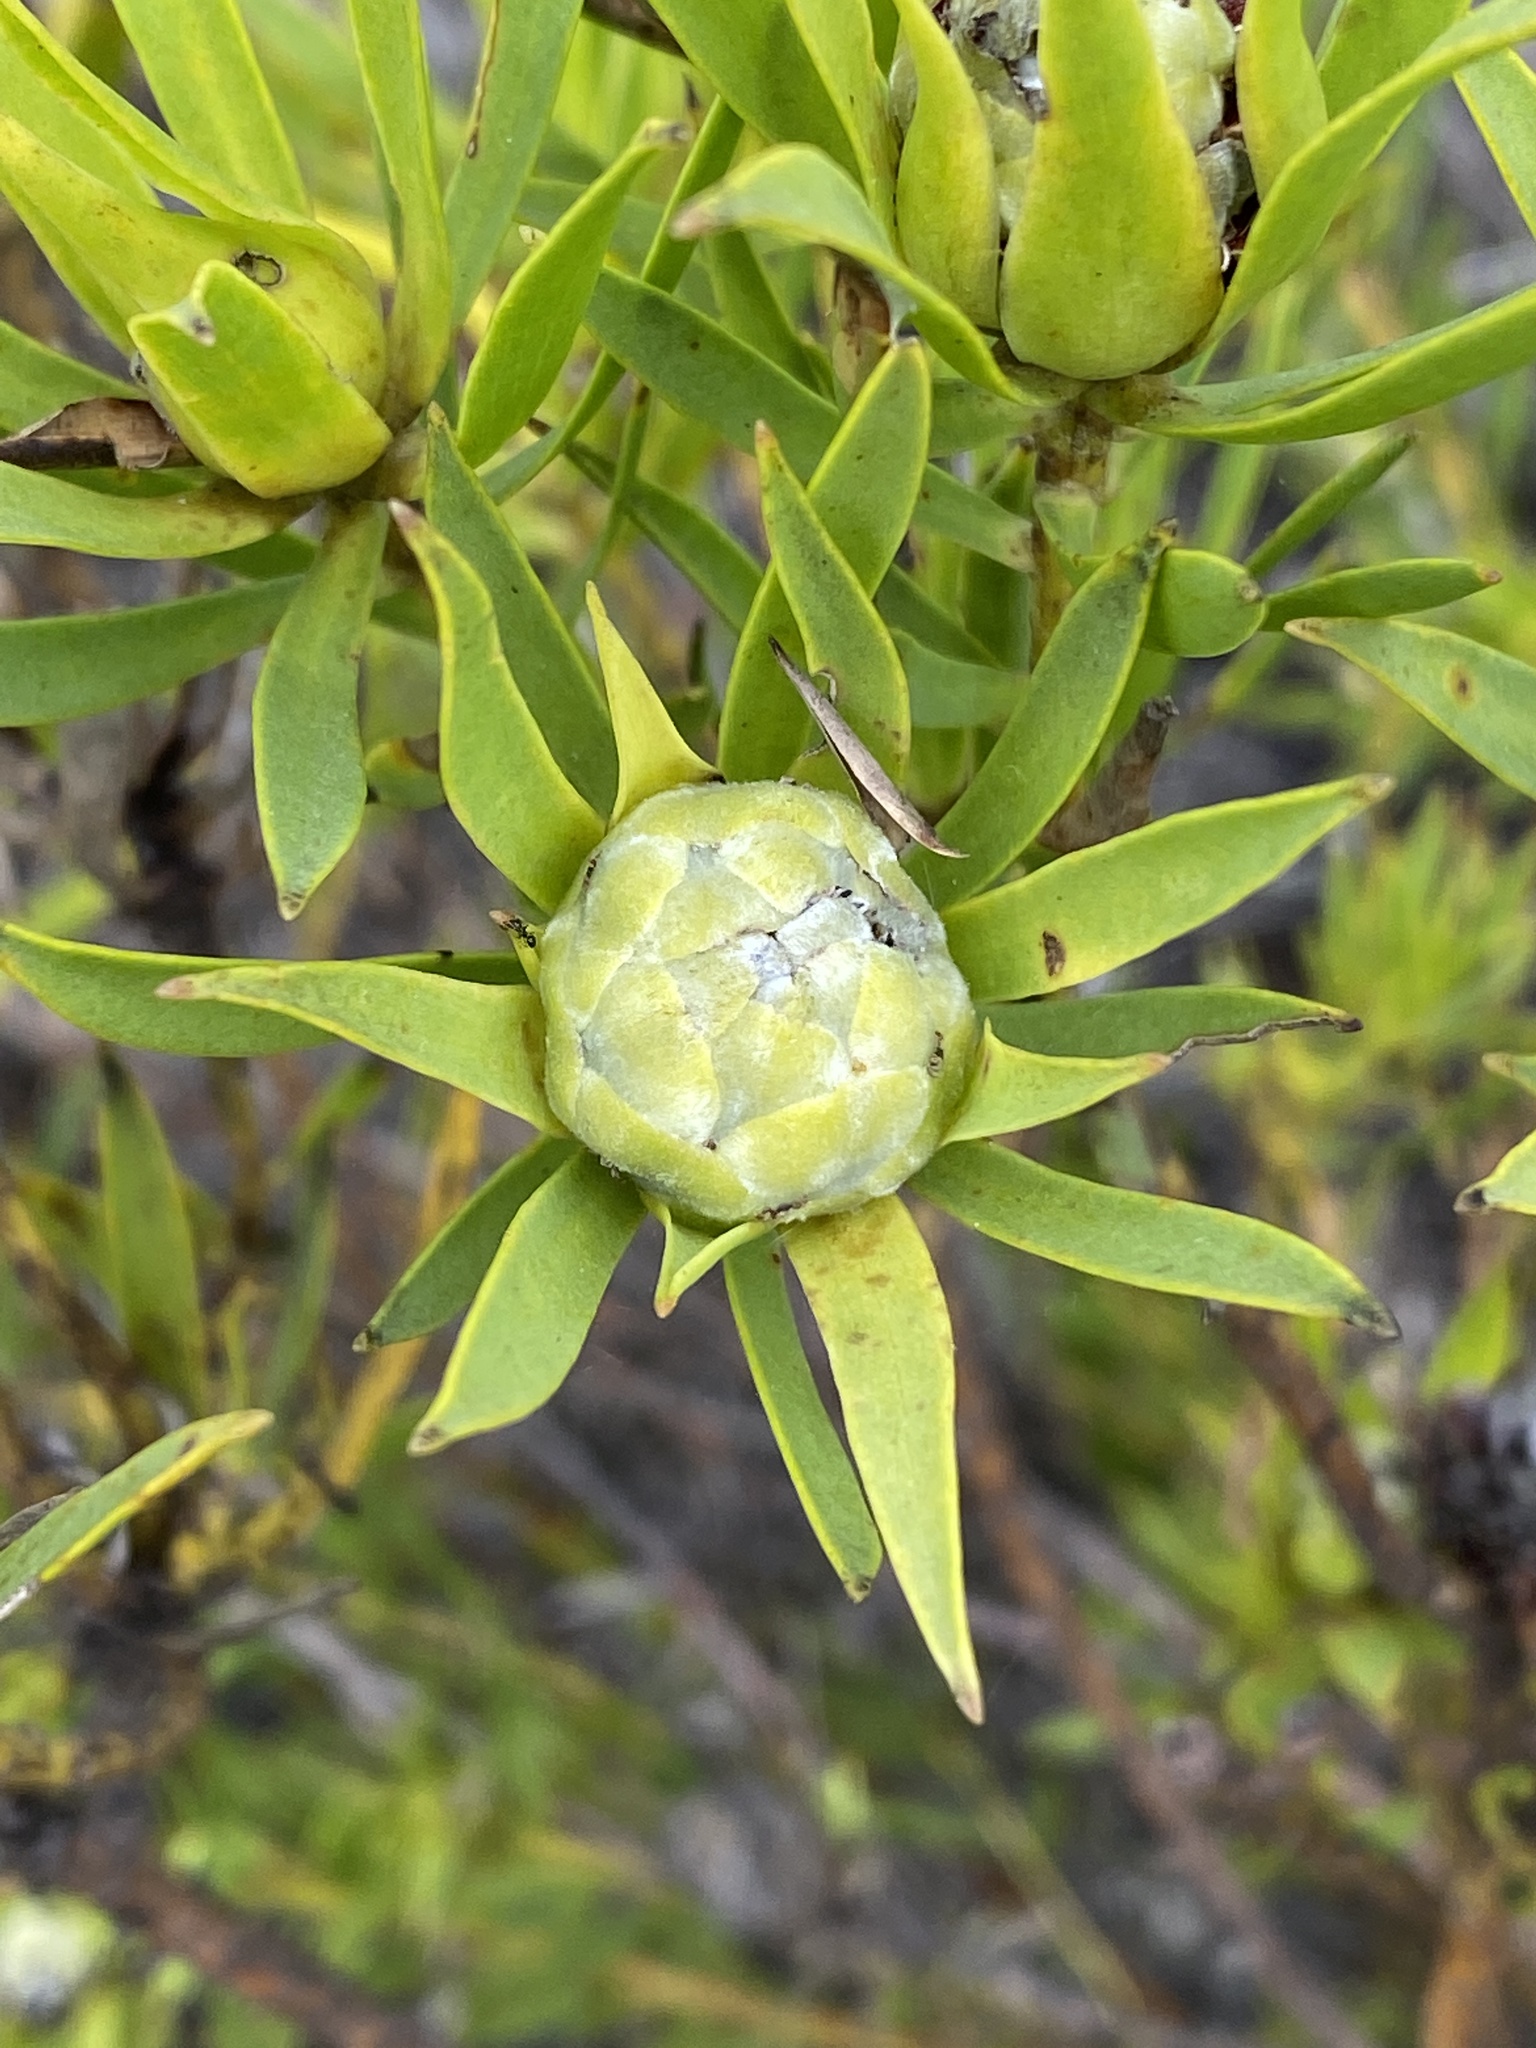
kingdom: Plantae
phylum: Tracheophyta
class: Magnoliopsida
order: Proteales
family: Proteaceae
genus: Leucadendron
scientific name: Leucadendron salignum
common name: Common sunshine conebush
